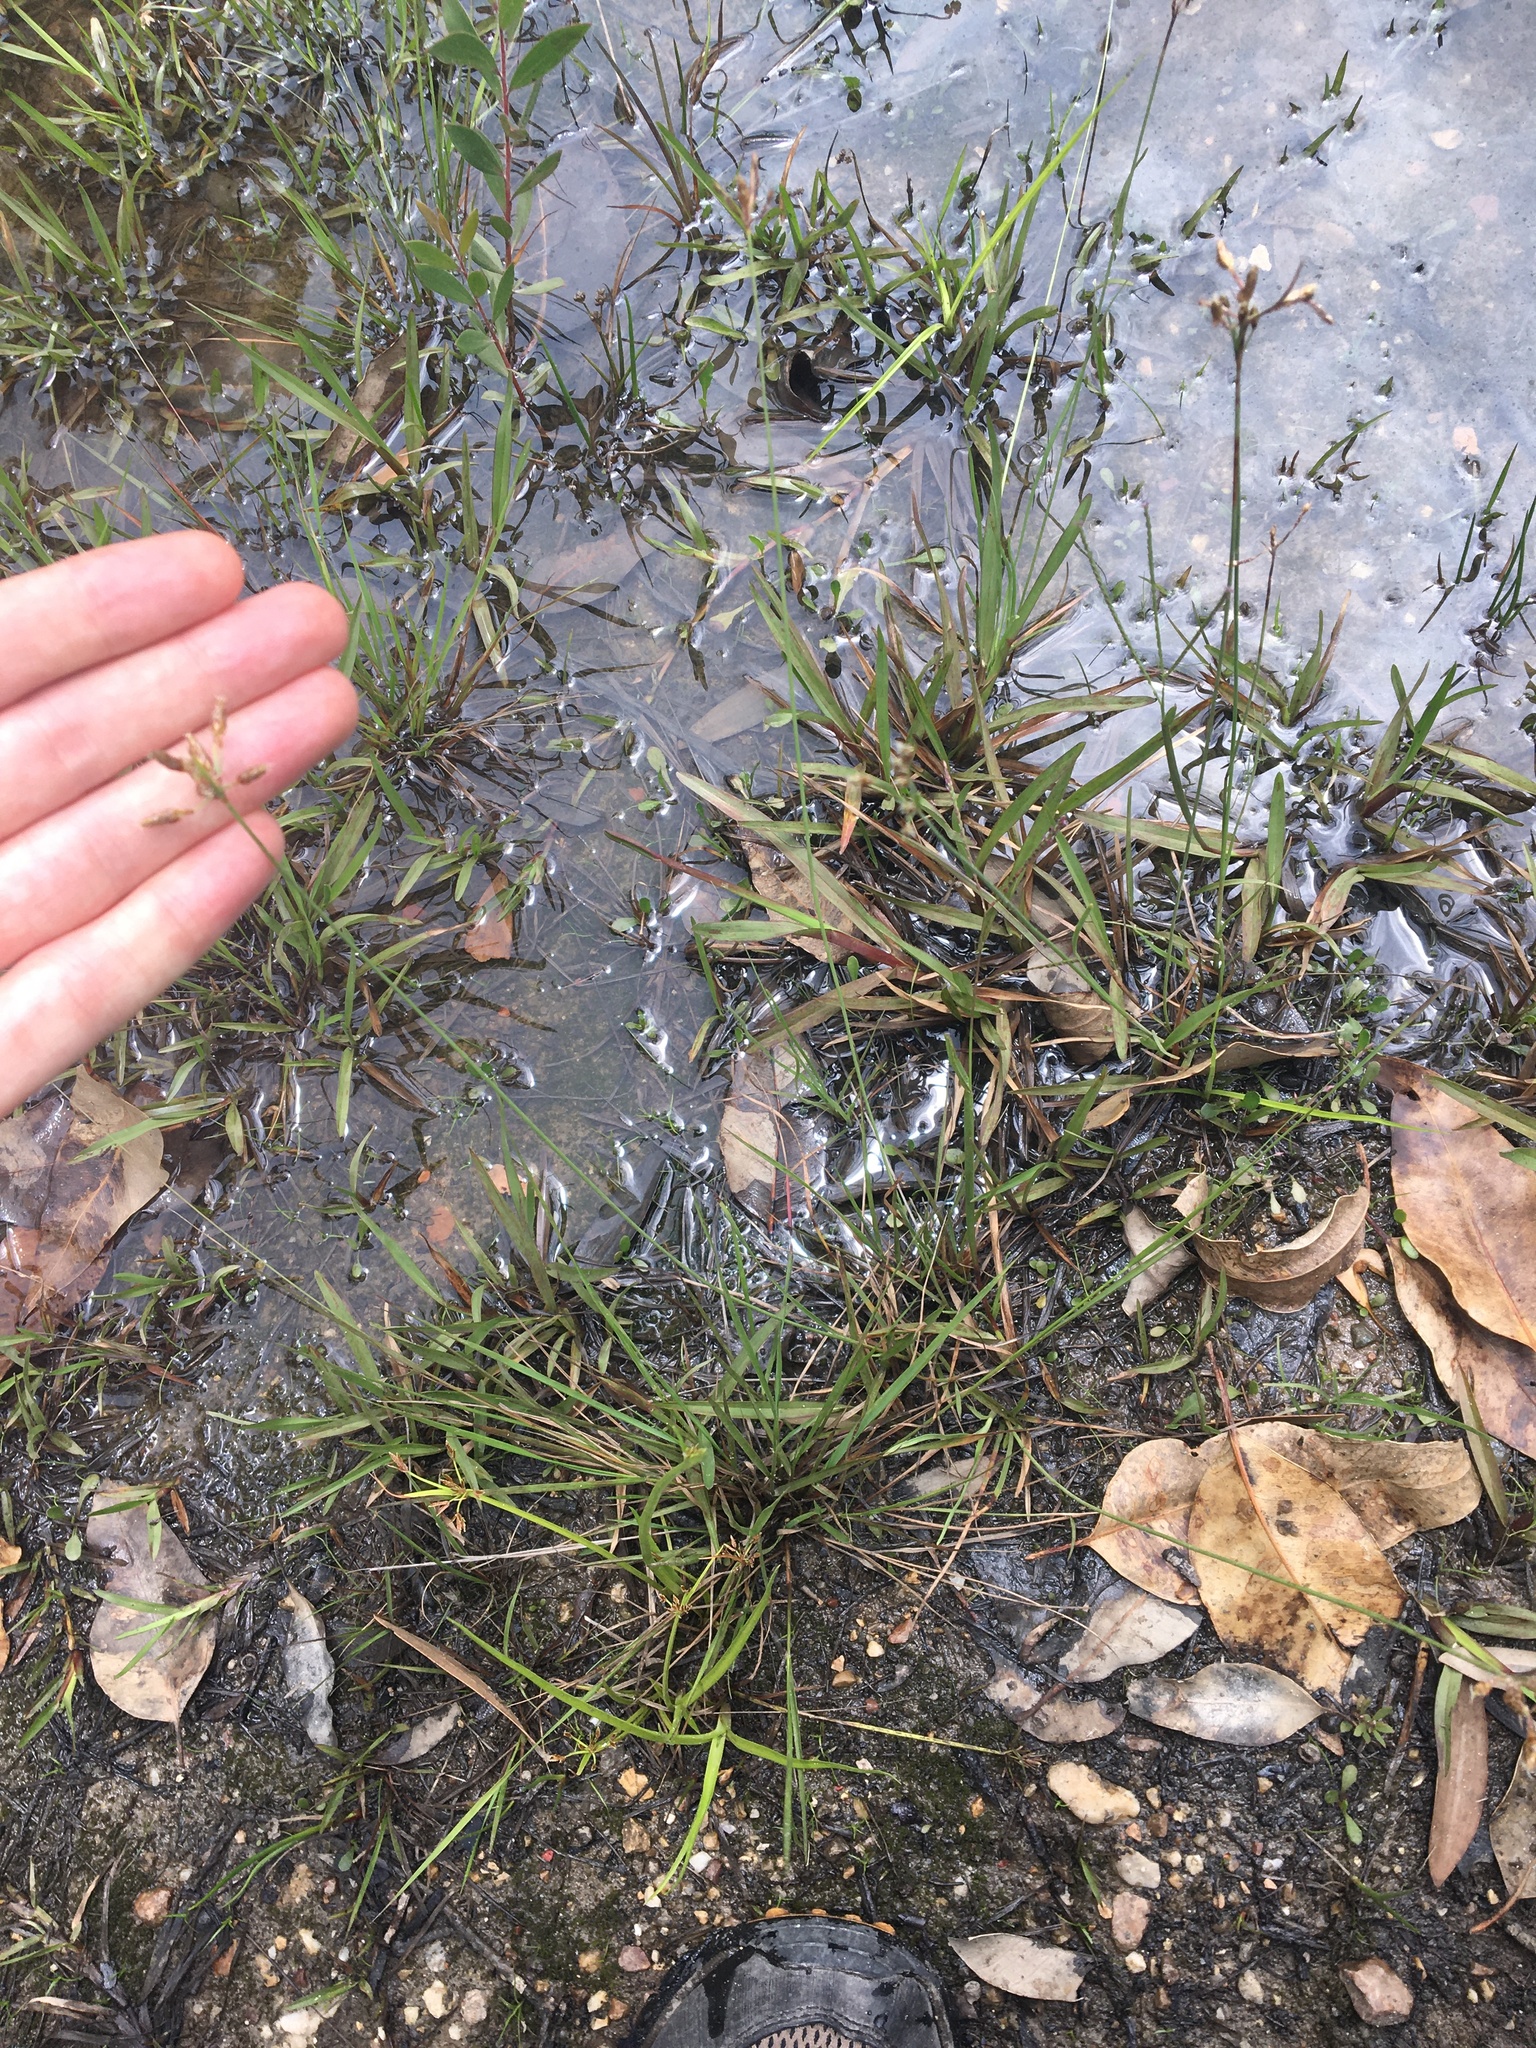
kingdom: Plantae
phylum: Tracheophyta
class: Liliopsida
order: Poales
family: Cyperaceae
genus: Fimbristylis
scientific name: Fimbristylis dichotoma
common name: Forked fimbry
